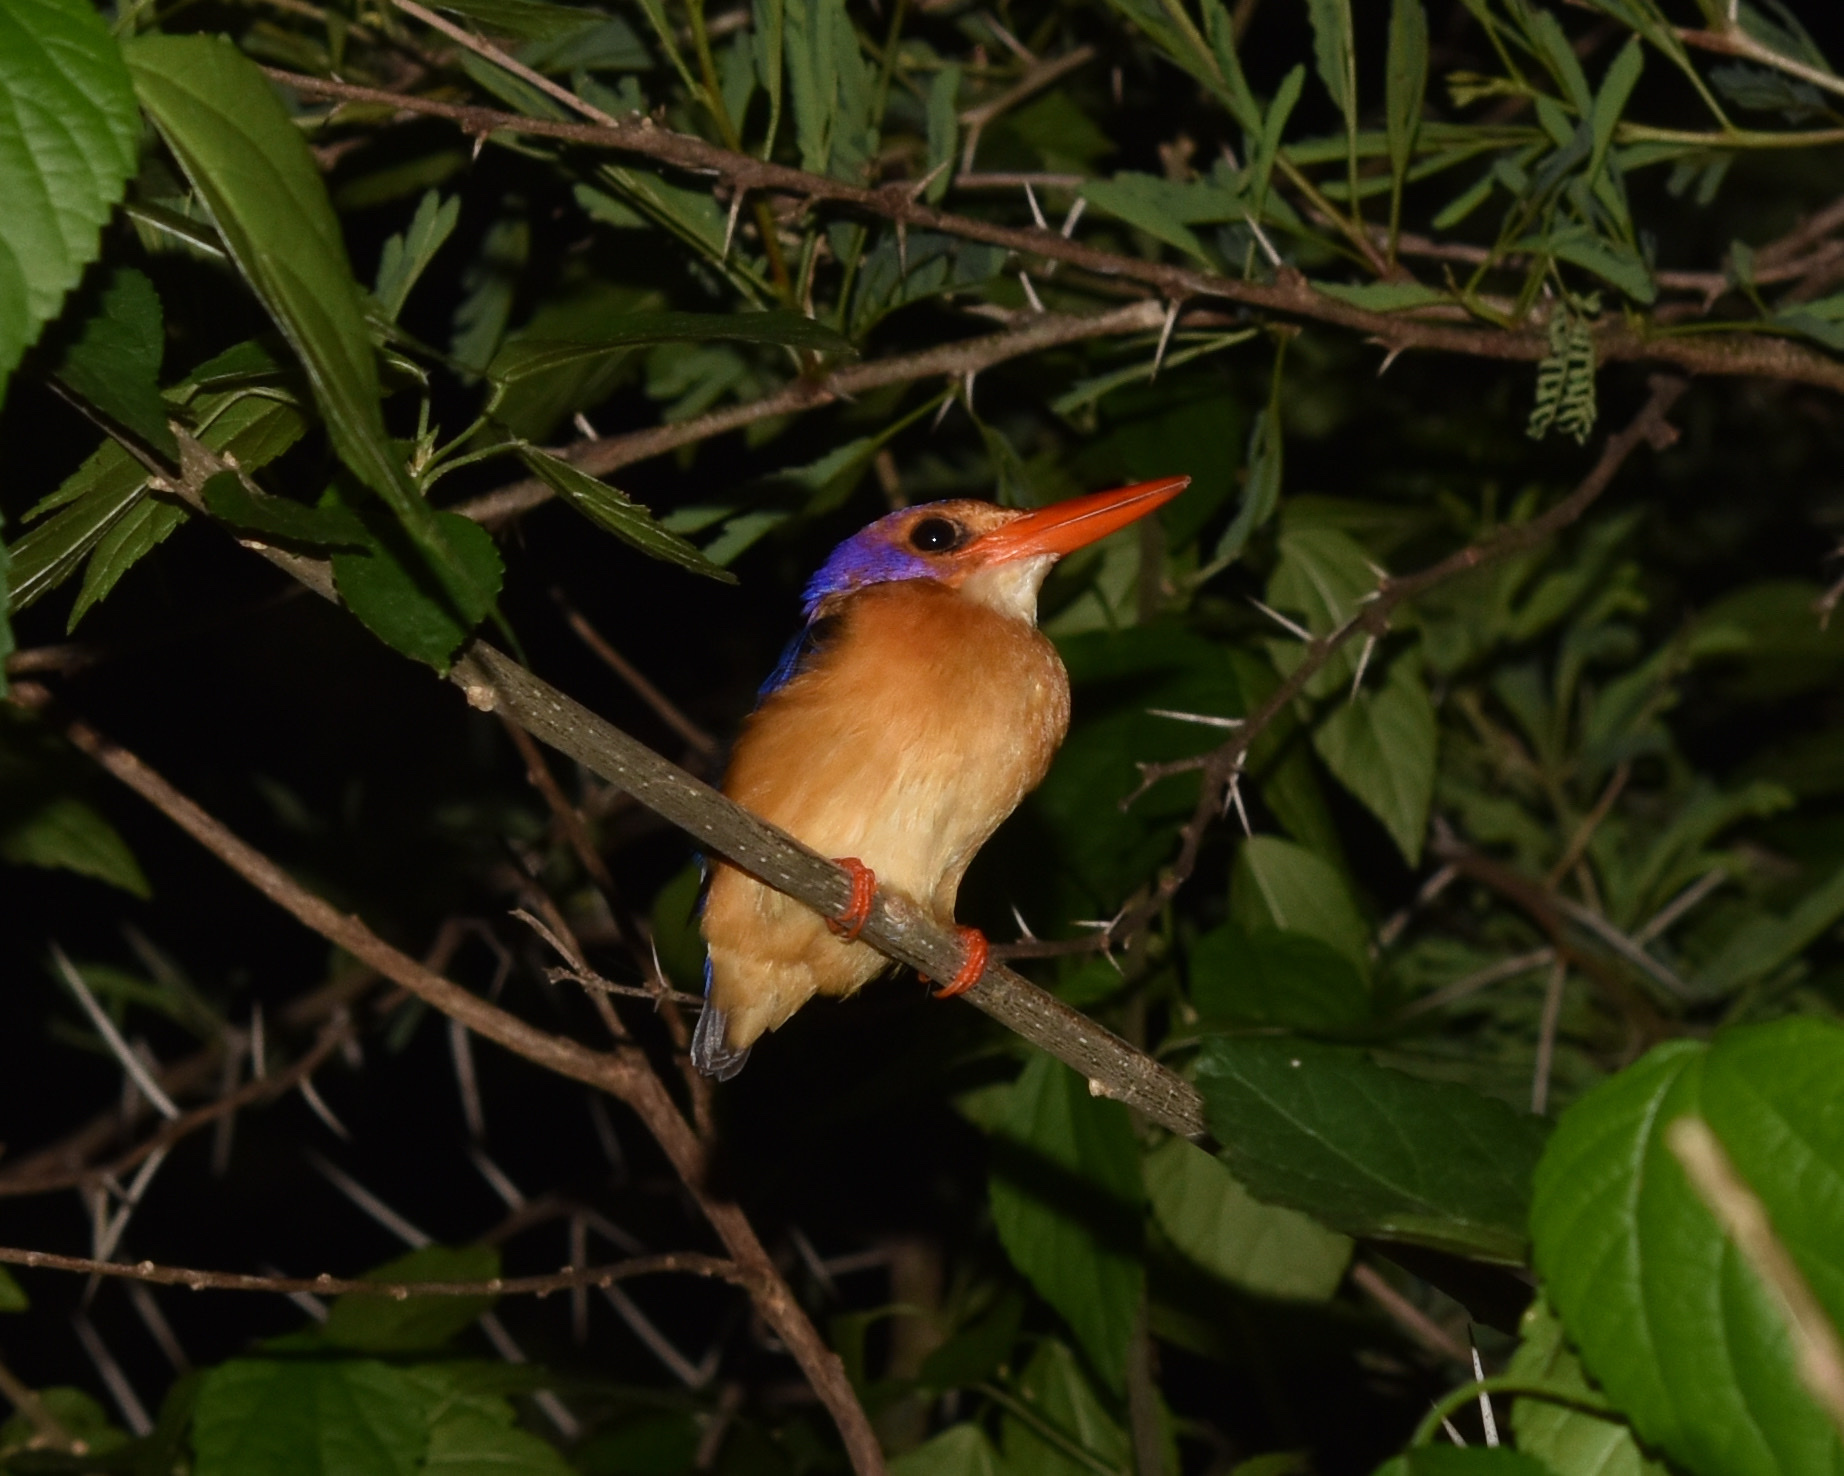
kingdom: Animalia
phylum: Chordata
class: Aves
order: Coraciiformes
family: Alcedinidae
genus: Ispidina
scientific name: Ispidina picta
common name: African pygmy-kingfisher
